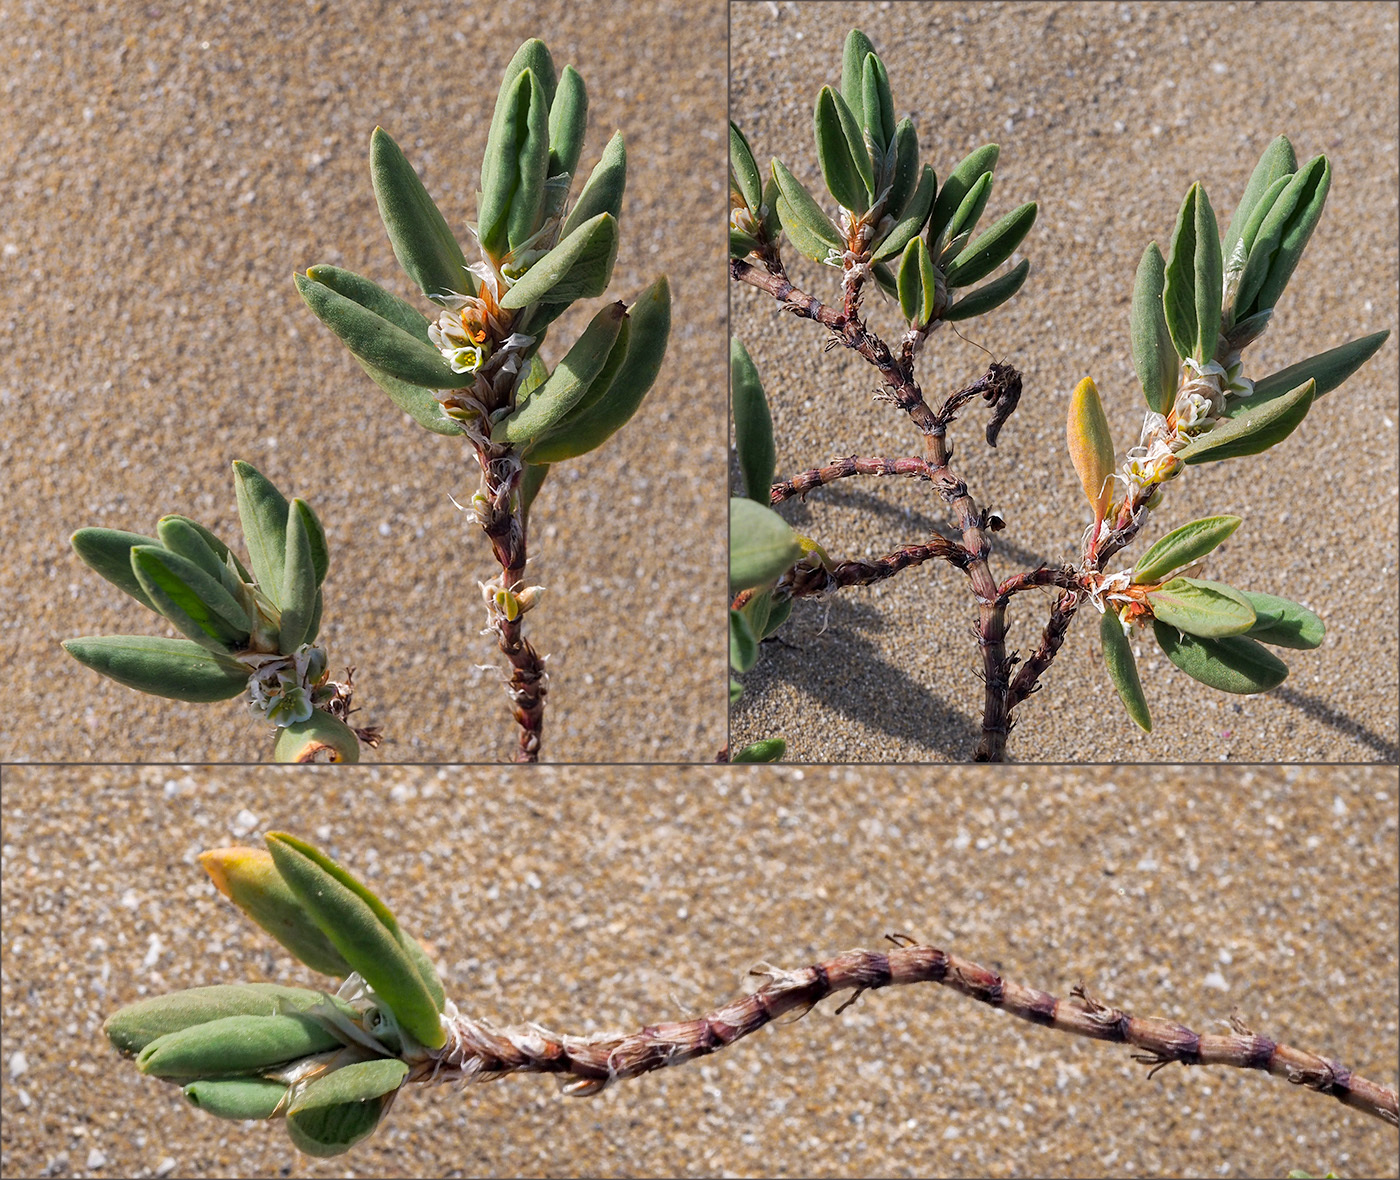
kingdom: Plantae
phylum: Tracheophyta
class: Magnoliopsida
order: Caryophyllales
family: Polygonaceae
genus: Polygonum
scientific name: Polygonum maritimum
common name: Sea knotgrass
